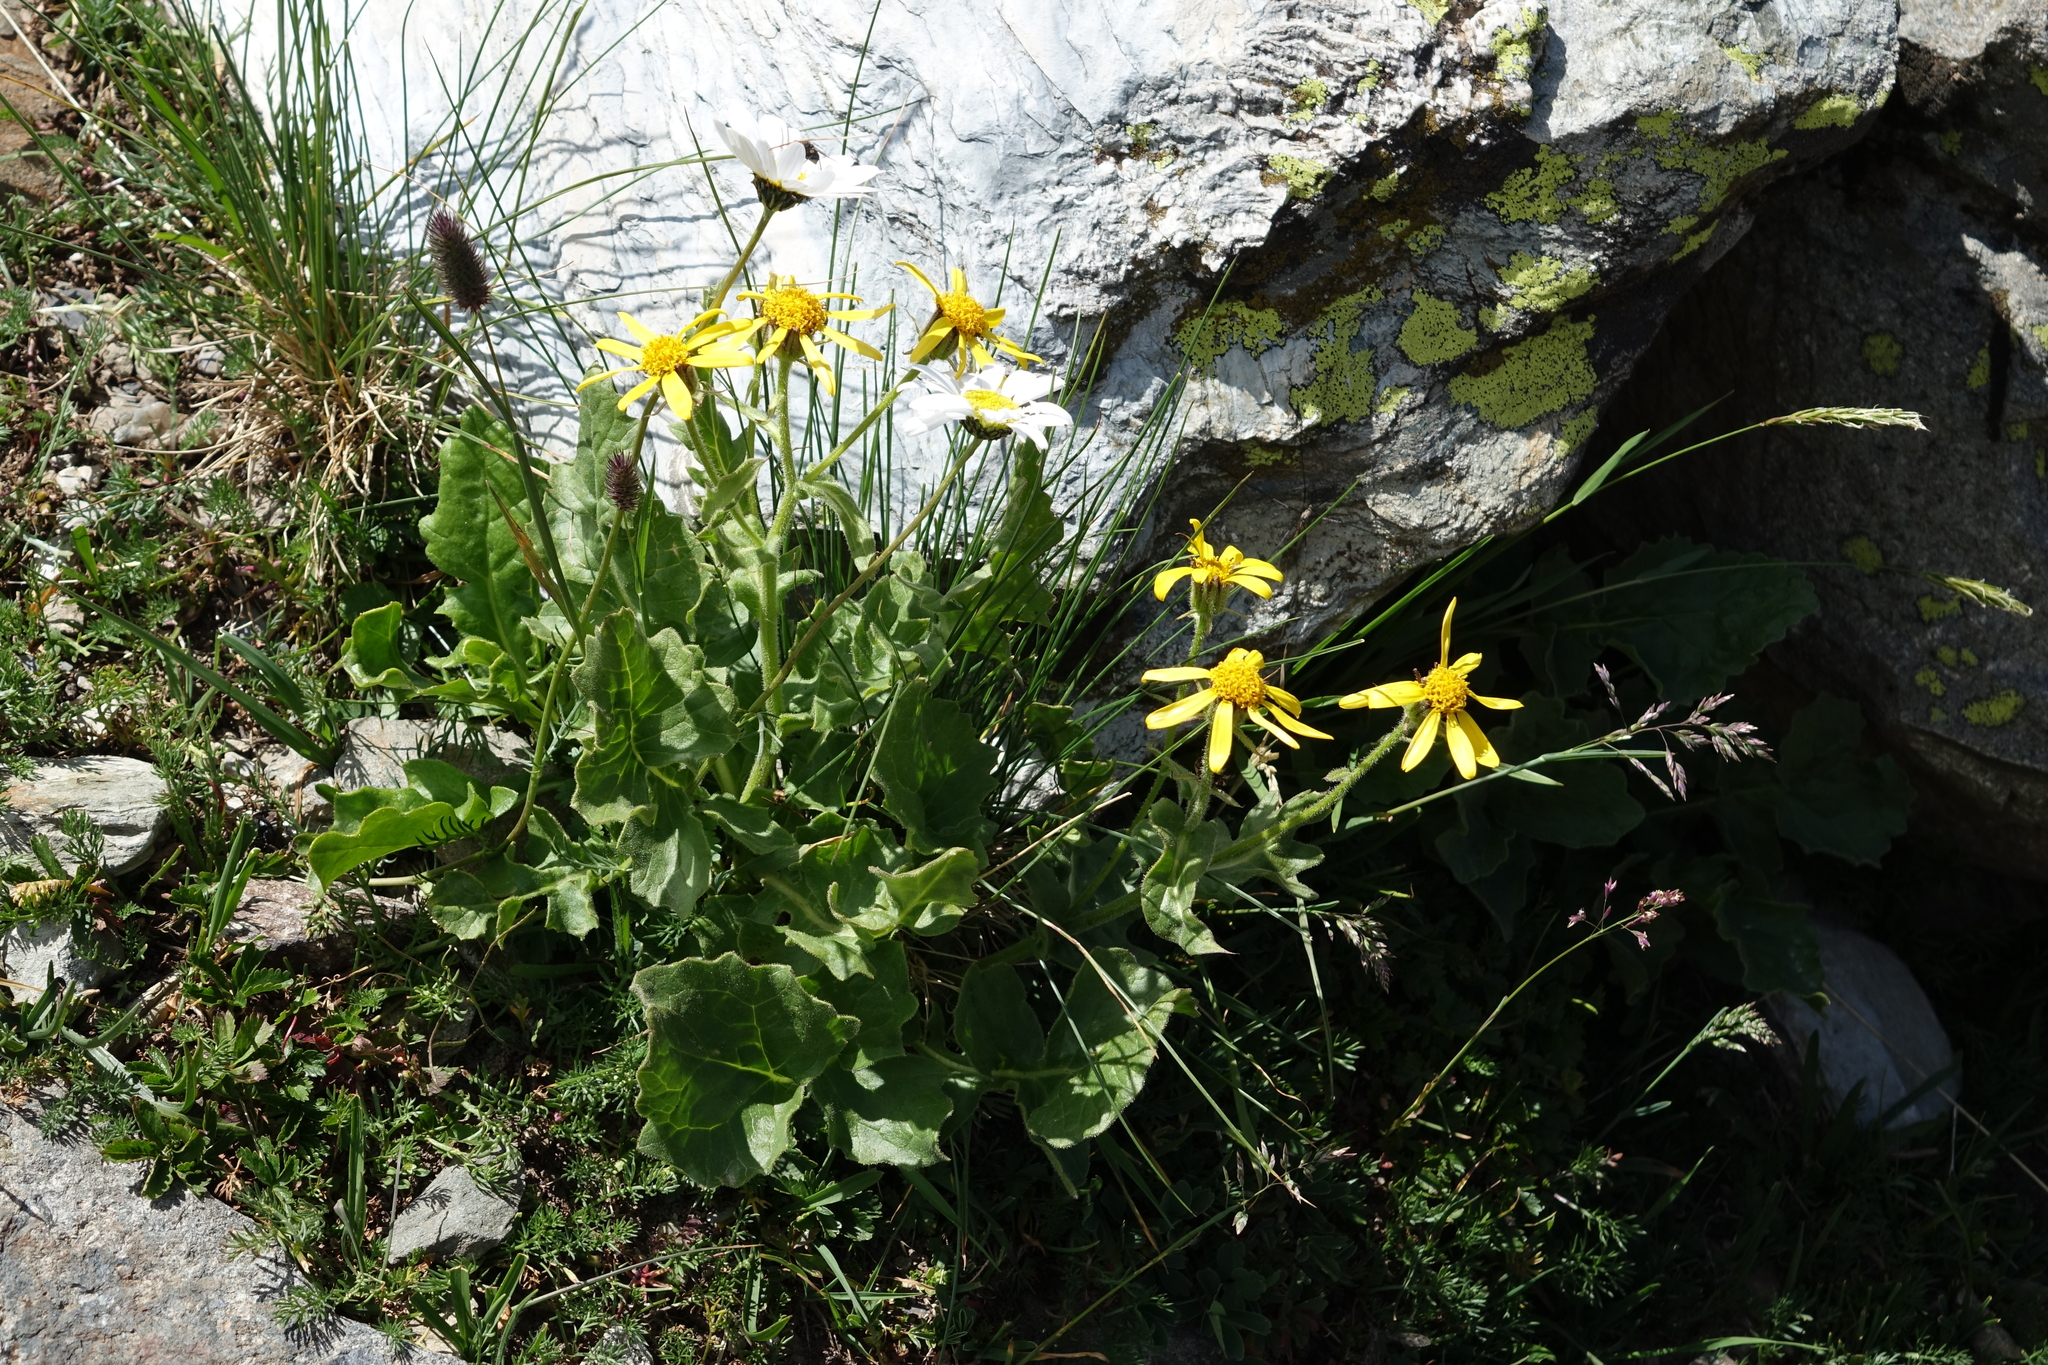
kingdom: Plantae
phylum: Tracheophyta
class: Magnoliopsida
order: Asterales
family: Asteraceae
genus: Turanecio
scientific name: Turanecio taraxacifolius
